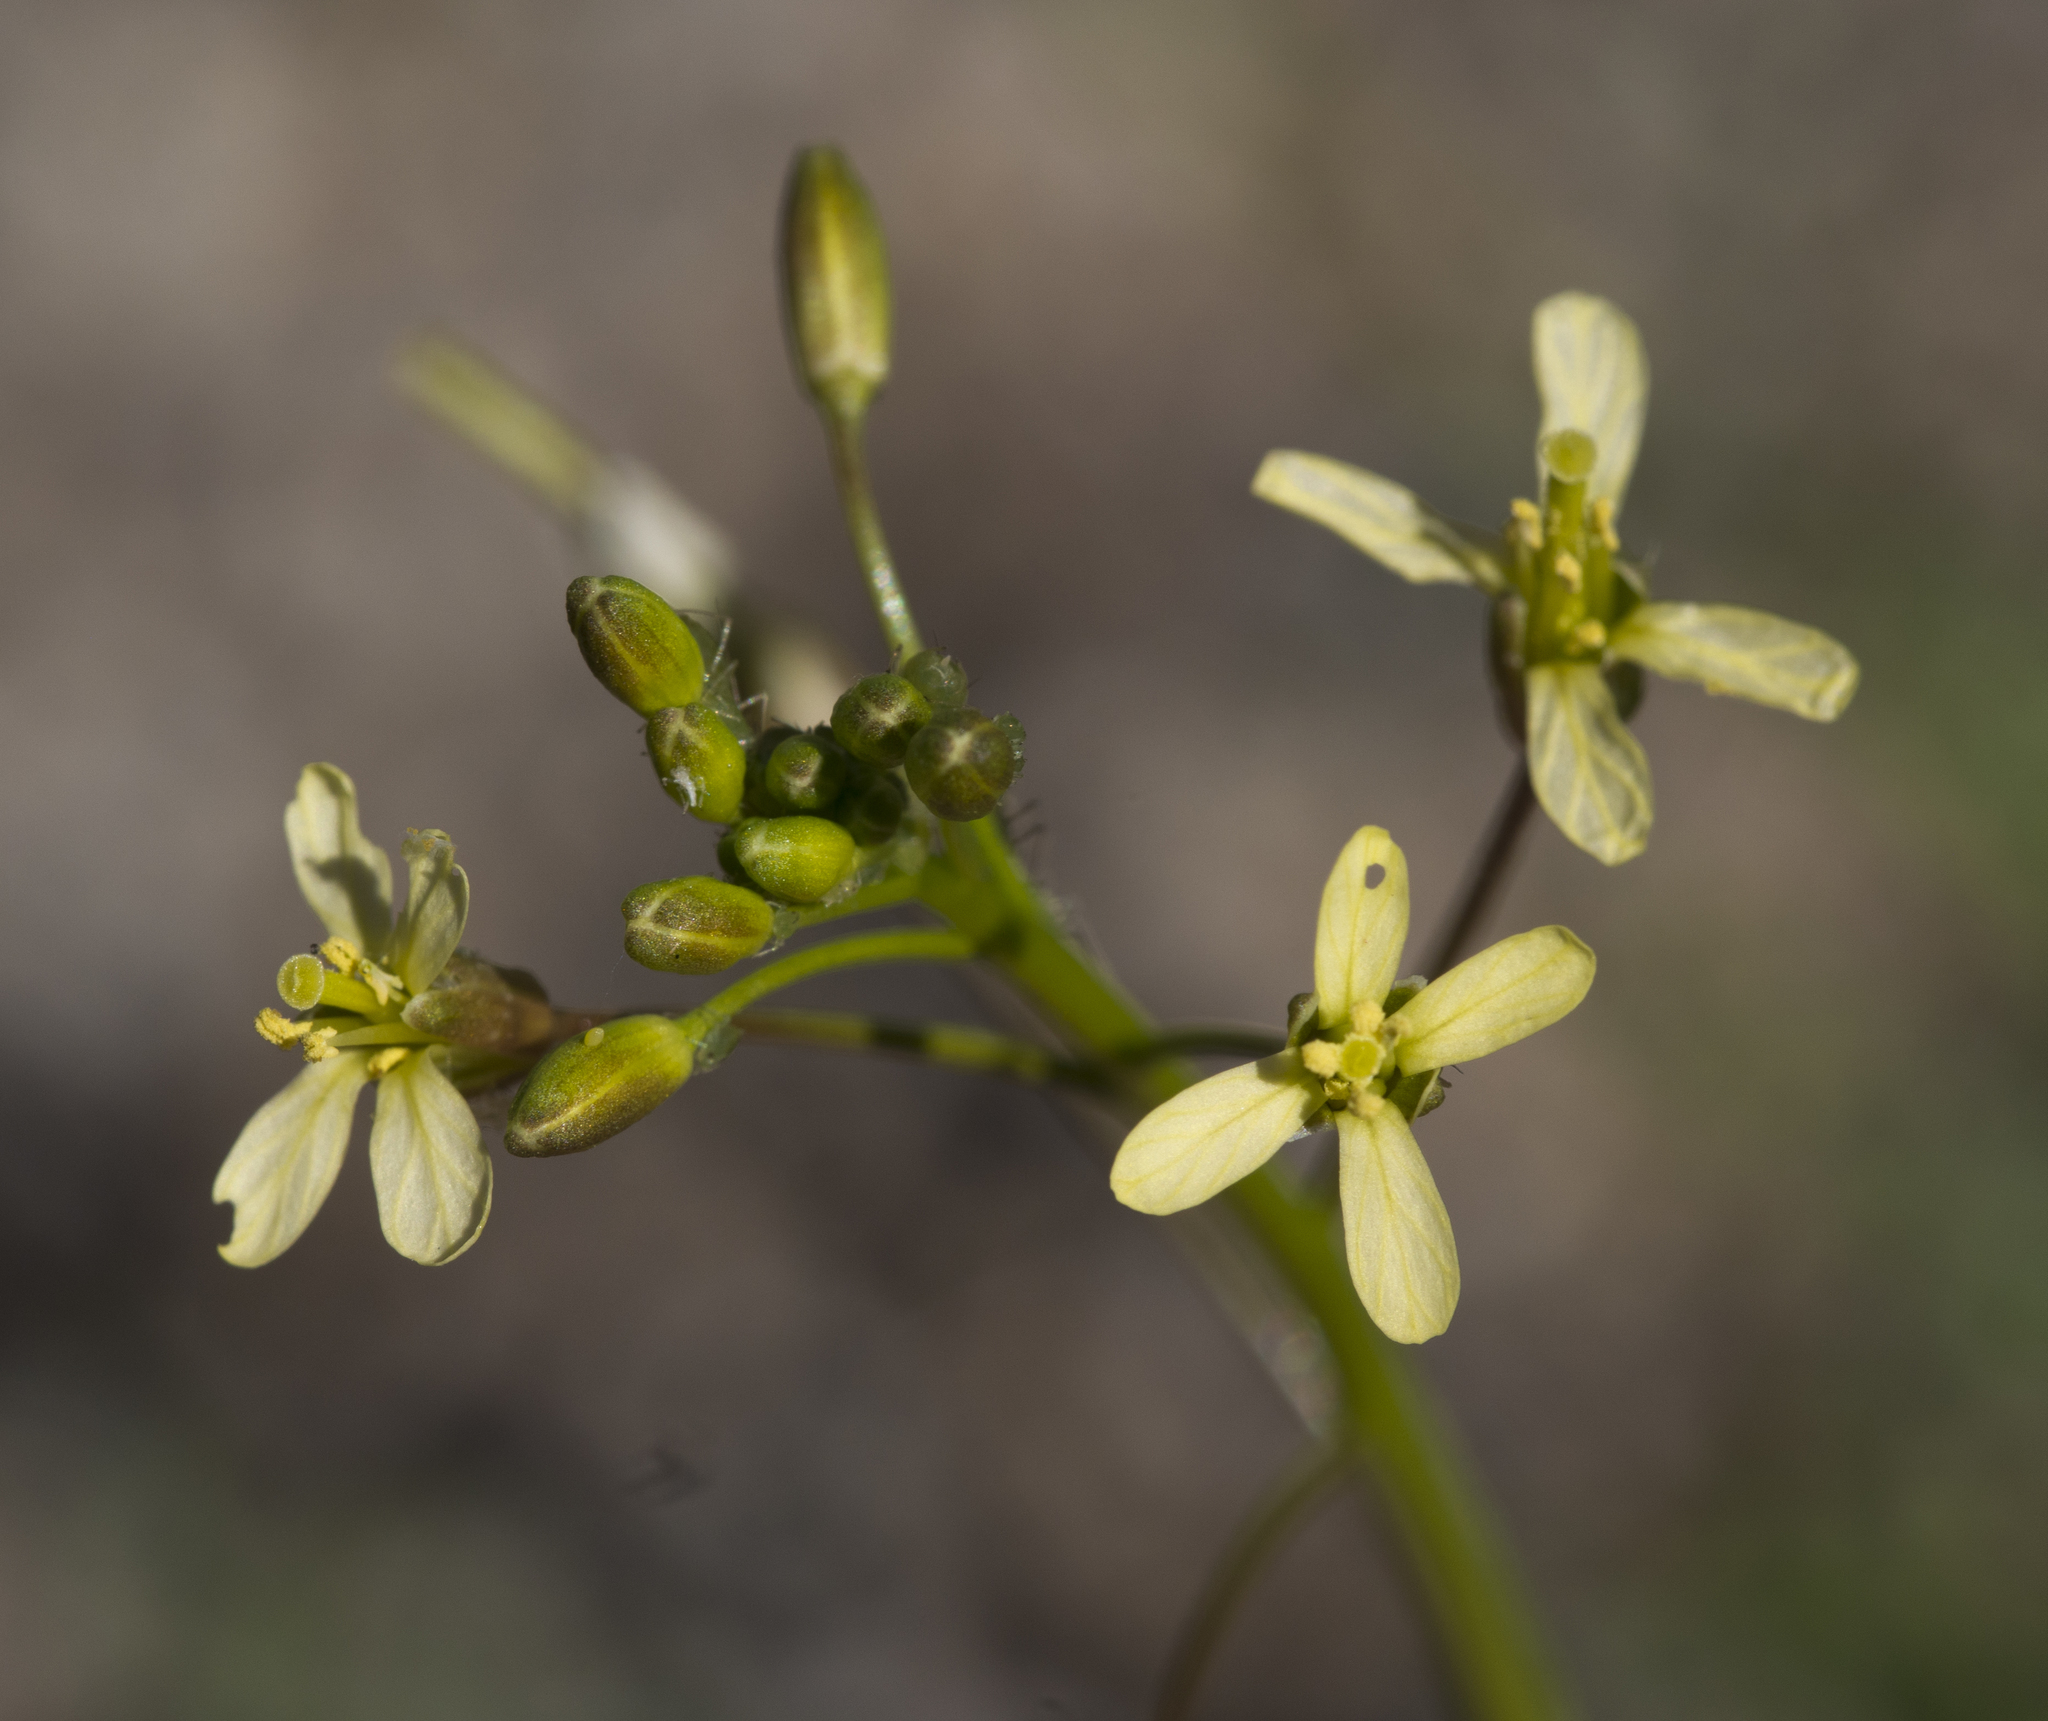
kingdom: Plantae
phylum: Tracheophyta
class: Magnoliopsida
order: Brassicales
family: Brassicaceae
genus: Brassica
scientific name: Brassica tournefortii
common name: Pale cabbage
